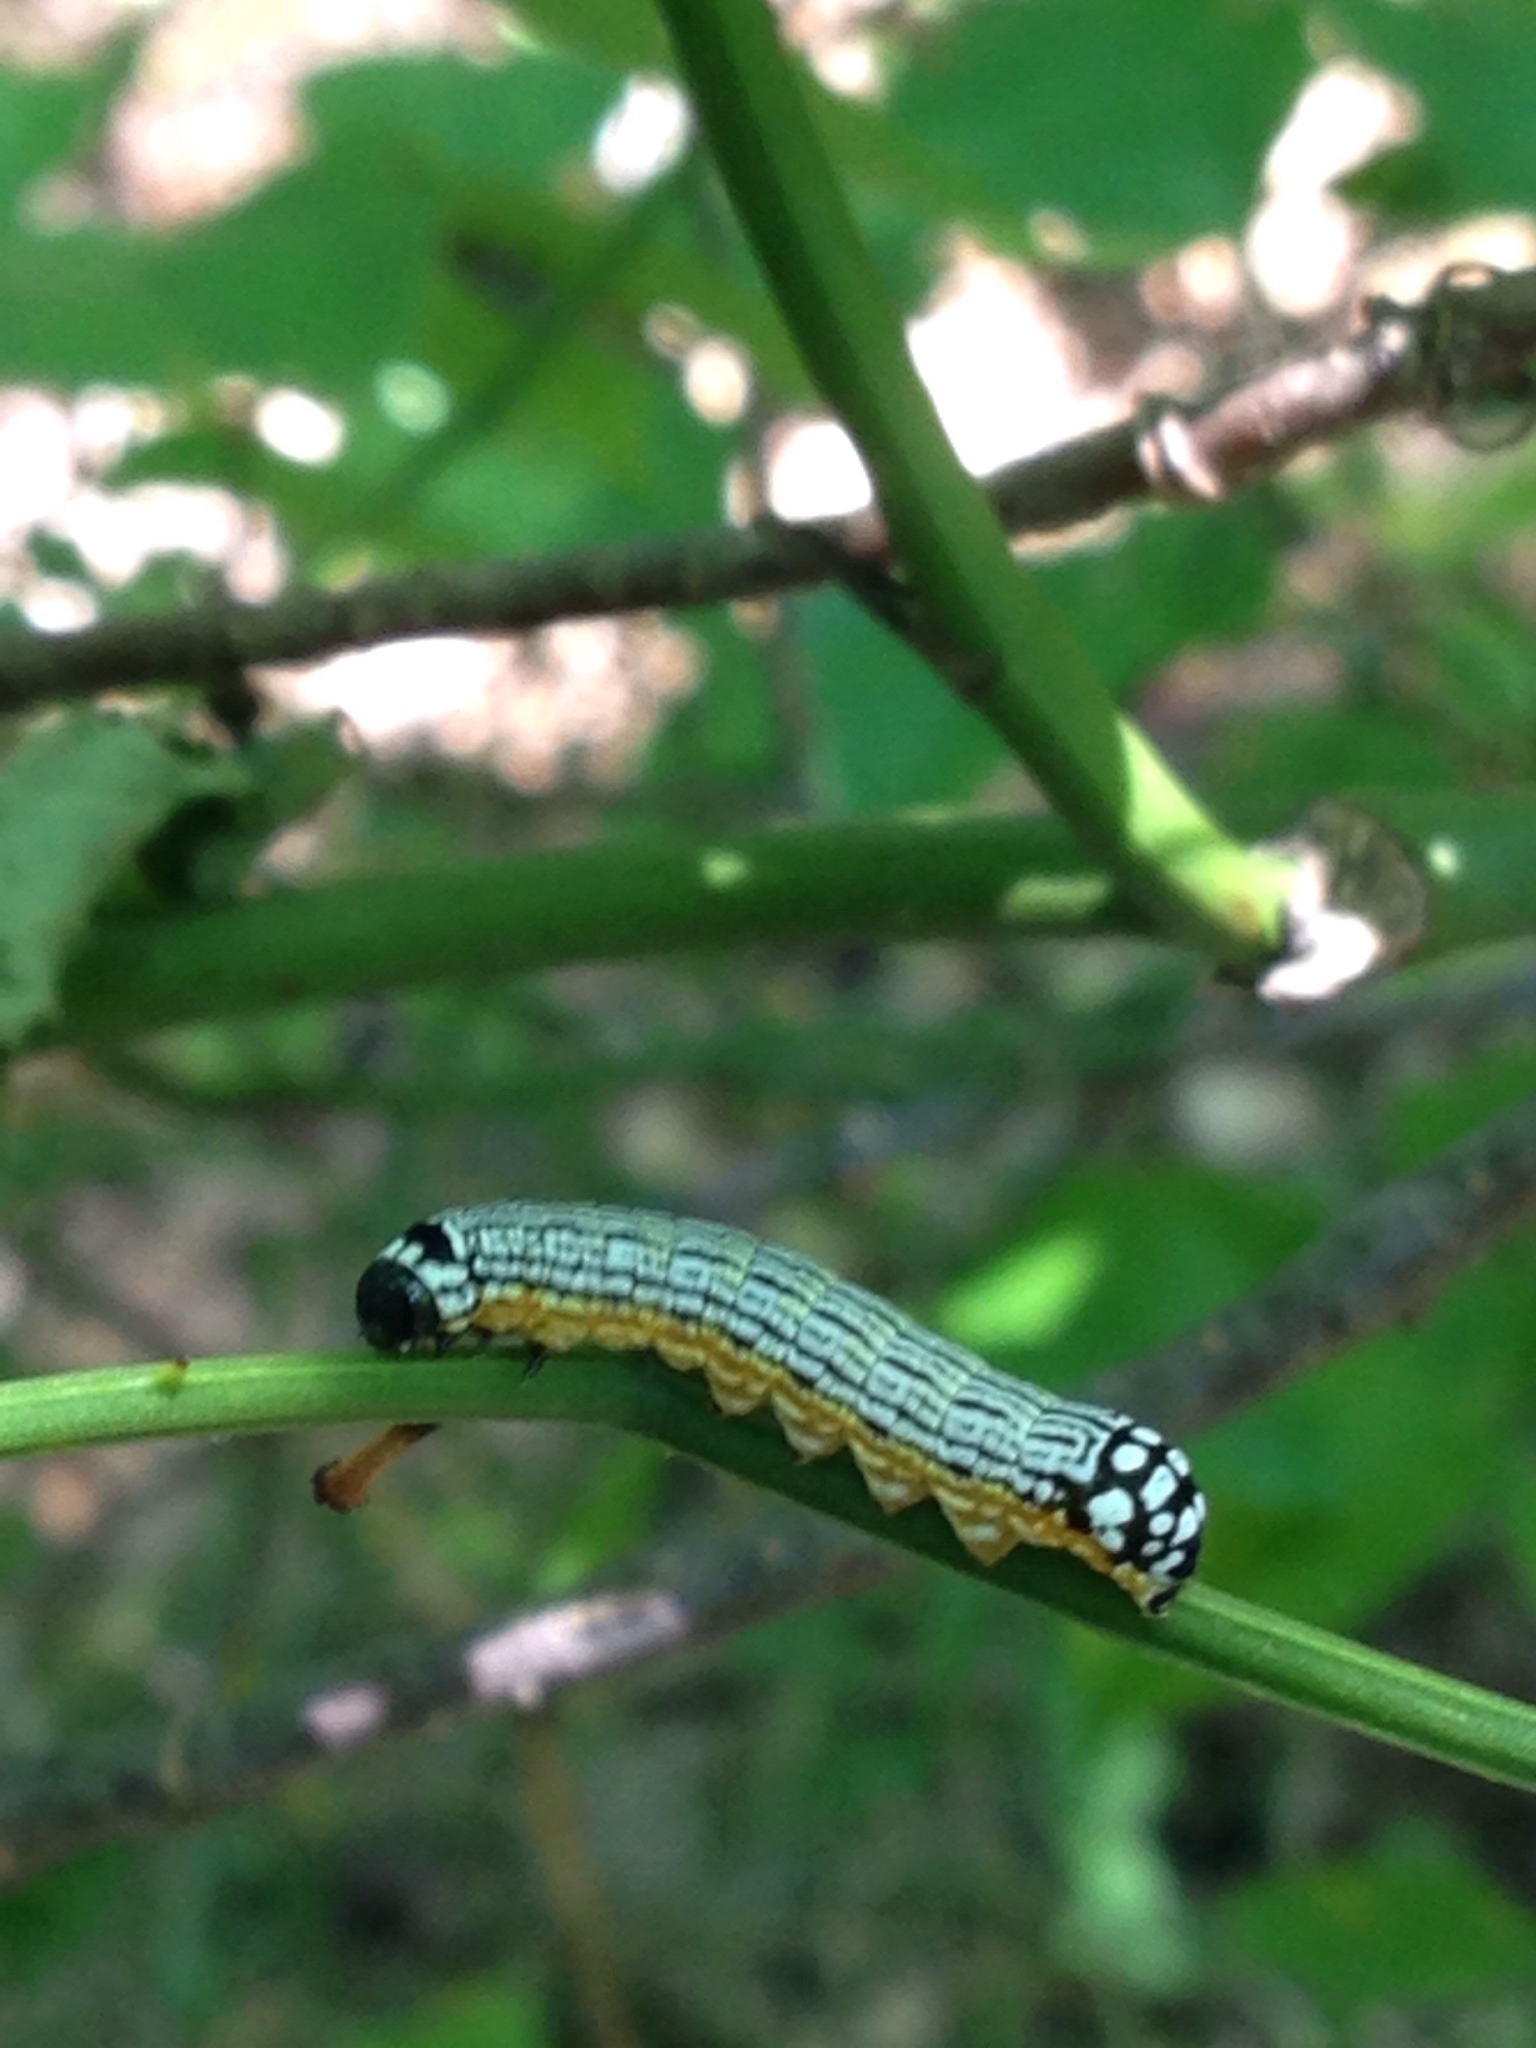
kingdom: Animalia
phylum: Arthropoda
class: Insecta
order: Lepidoptera
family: Noctuidae
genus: Phosphila
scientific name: Phosphila turbulenta
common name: Turbulent phosphila moth
